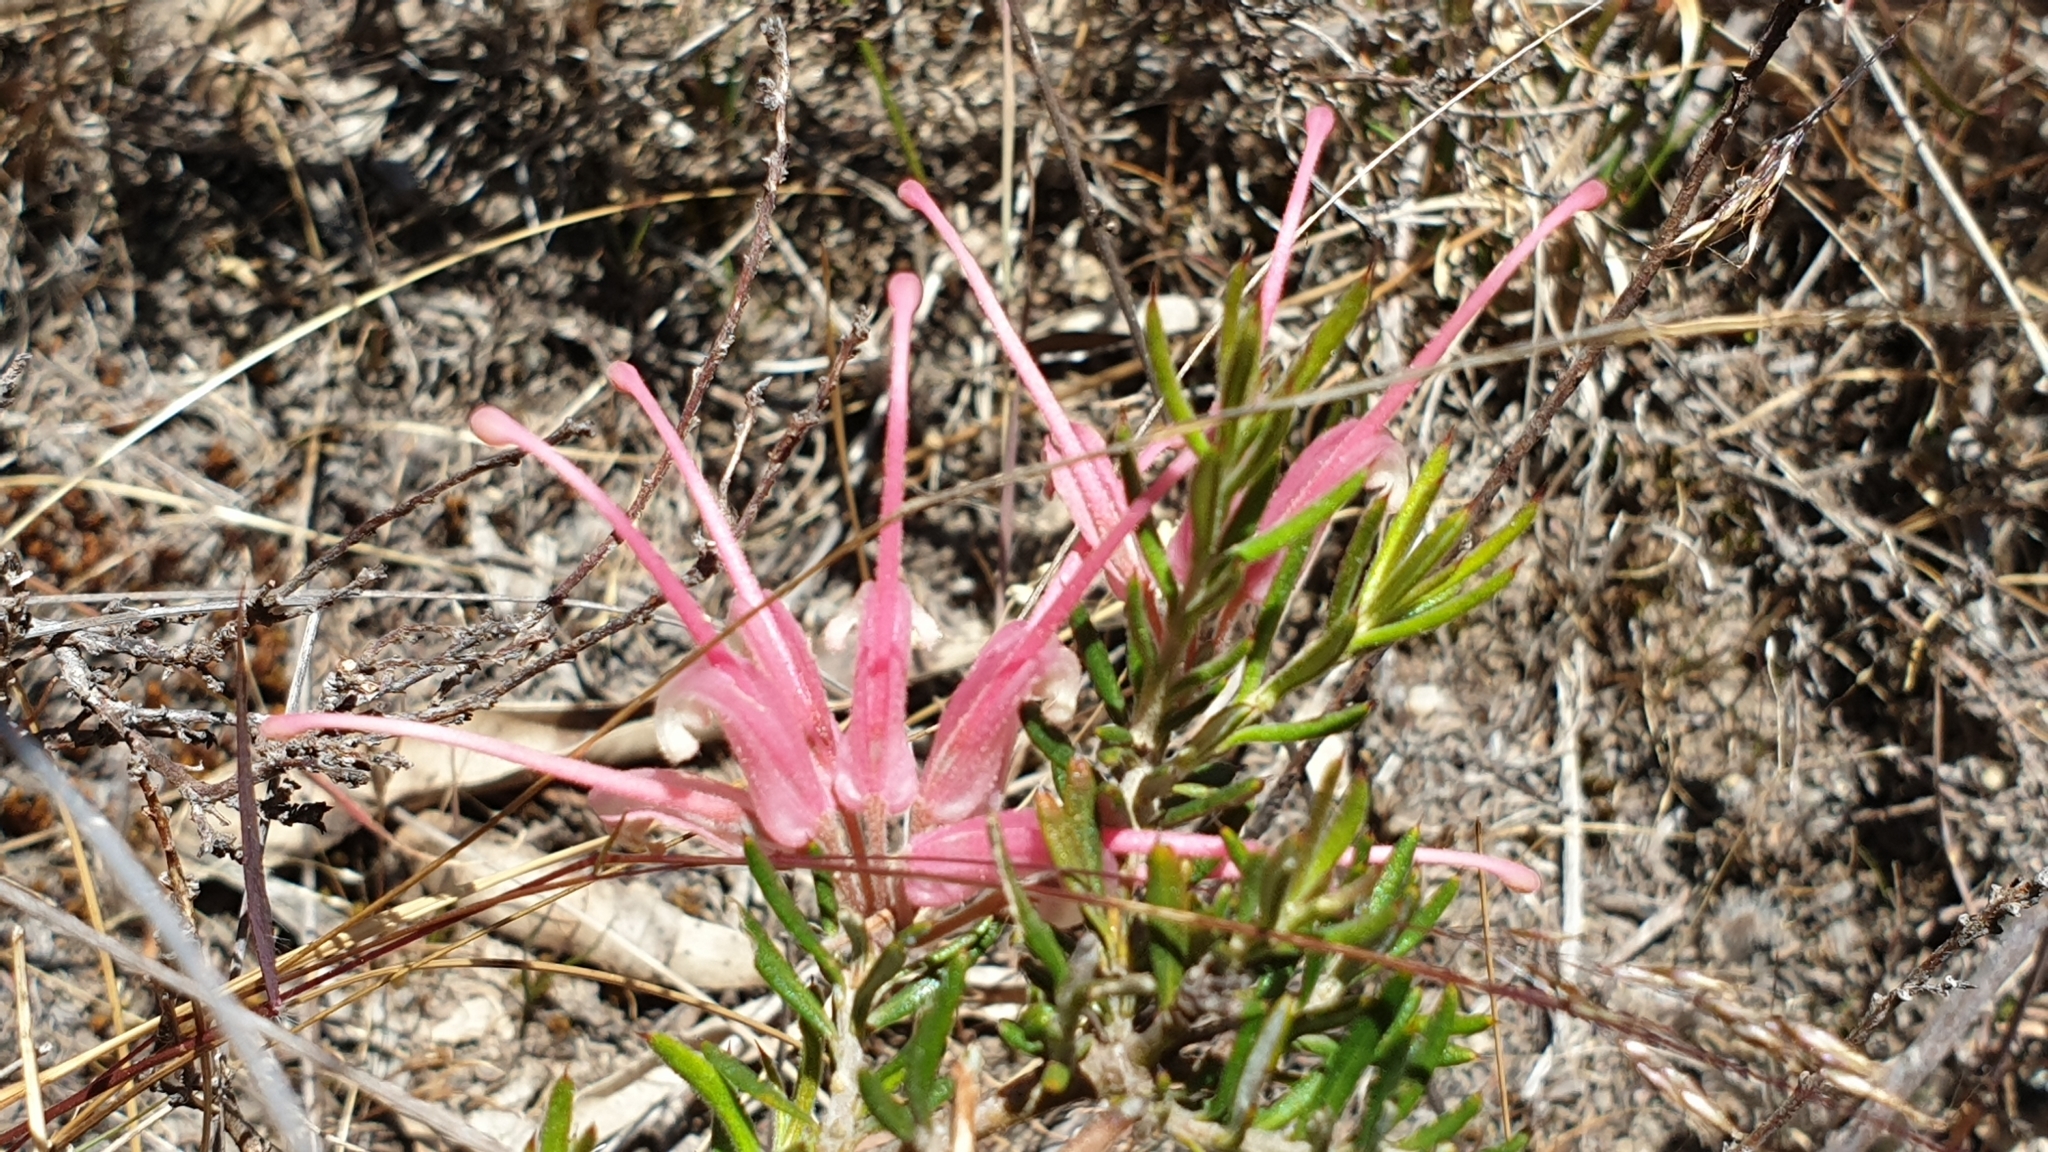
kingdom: Plantae
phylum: Tracheophyta
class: Magnoliopsida
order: Proteales
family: Proteaceae
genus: Grevillea
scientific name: Grevillea lavandulacea
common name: Lavender grevillea
